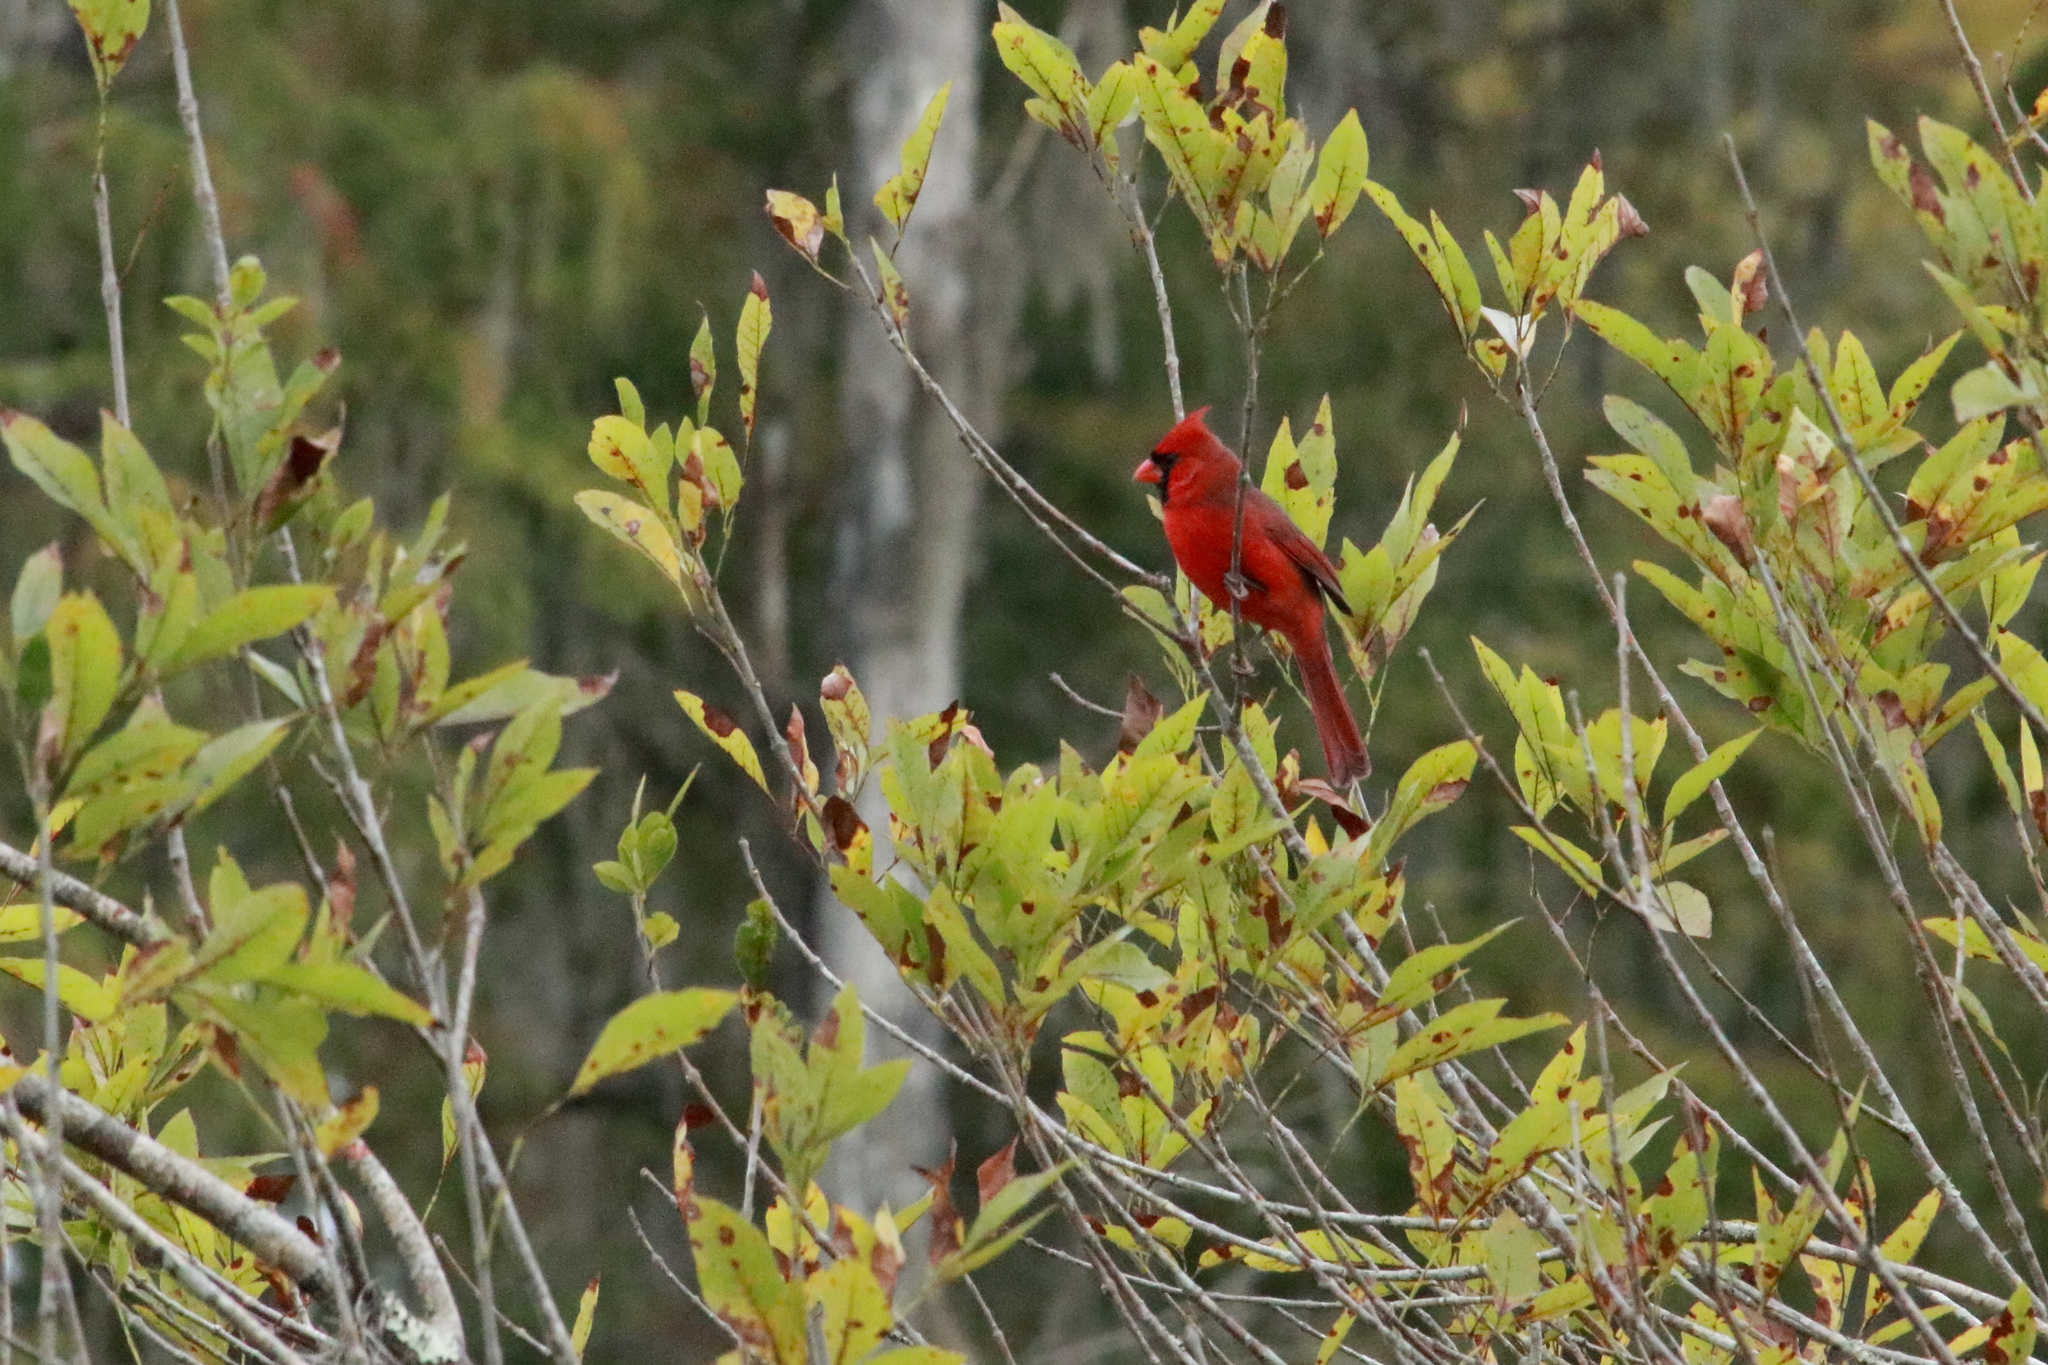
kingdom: Animalia
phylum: Chordata
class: Aves
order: Passeriformes
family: Cardinalidae
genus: Cardinalis
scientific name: Cardinalis cardinalis
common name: Northern cardinal
